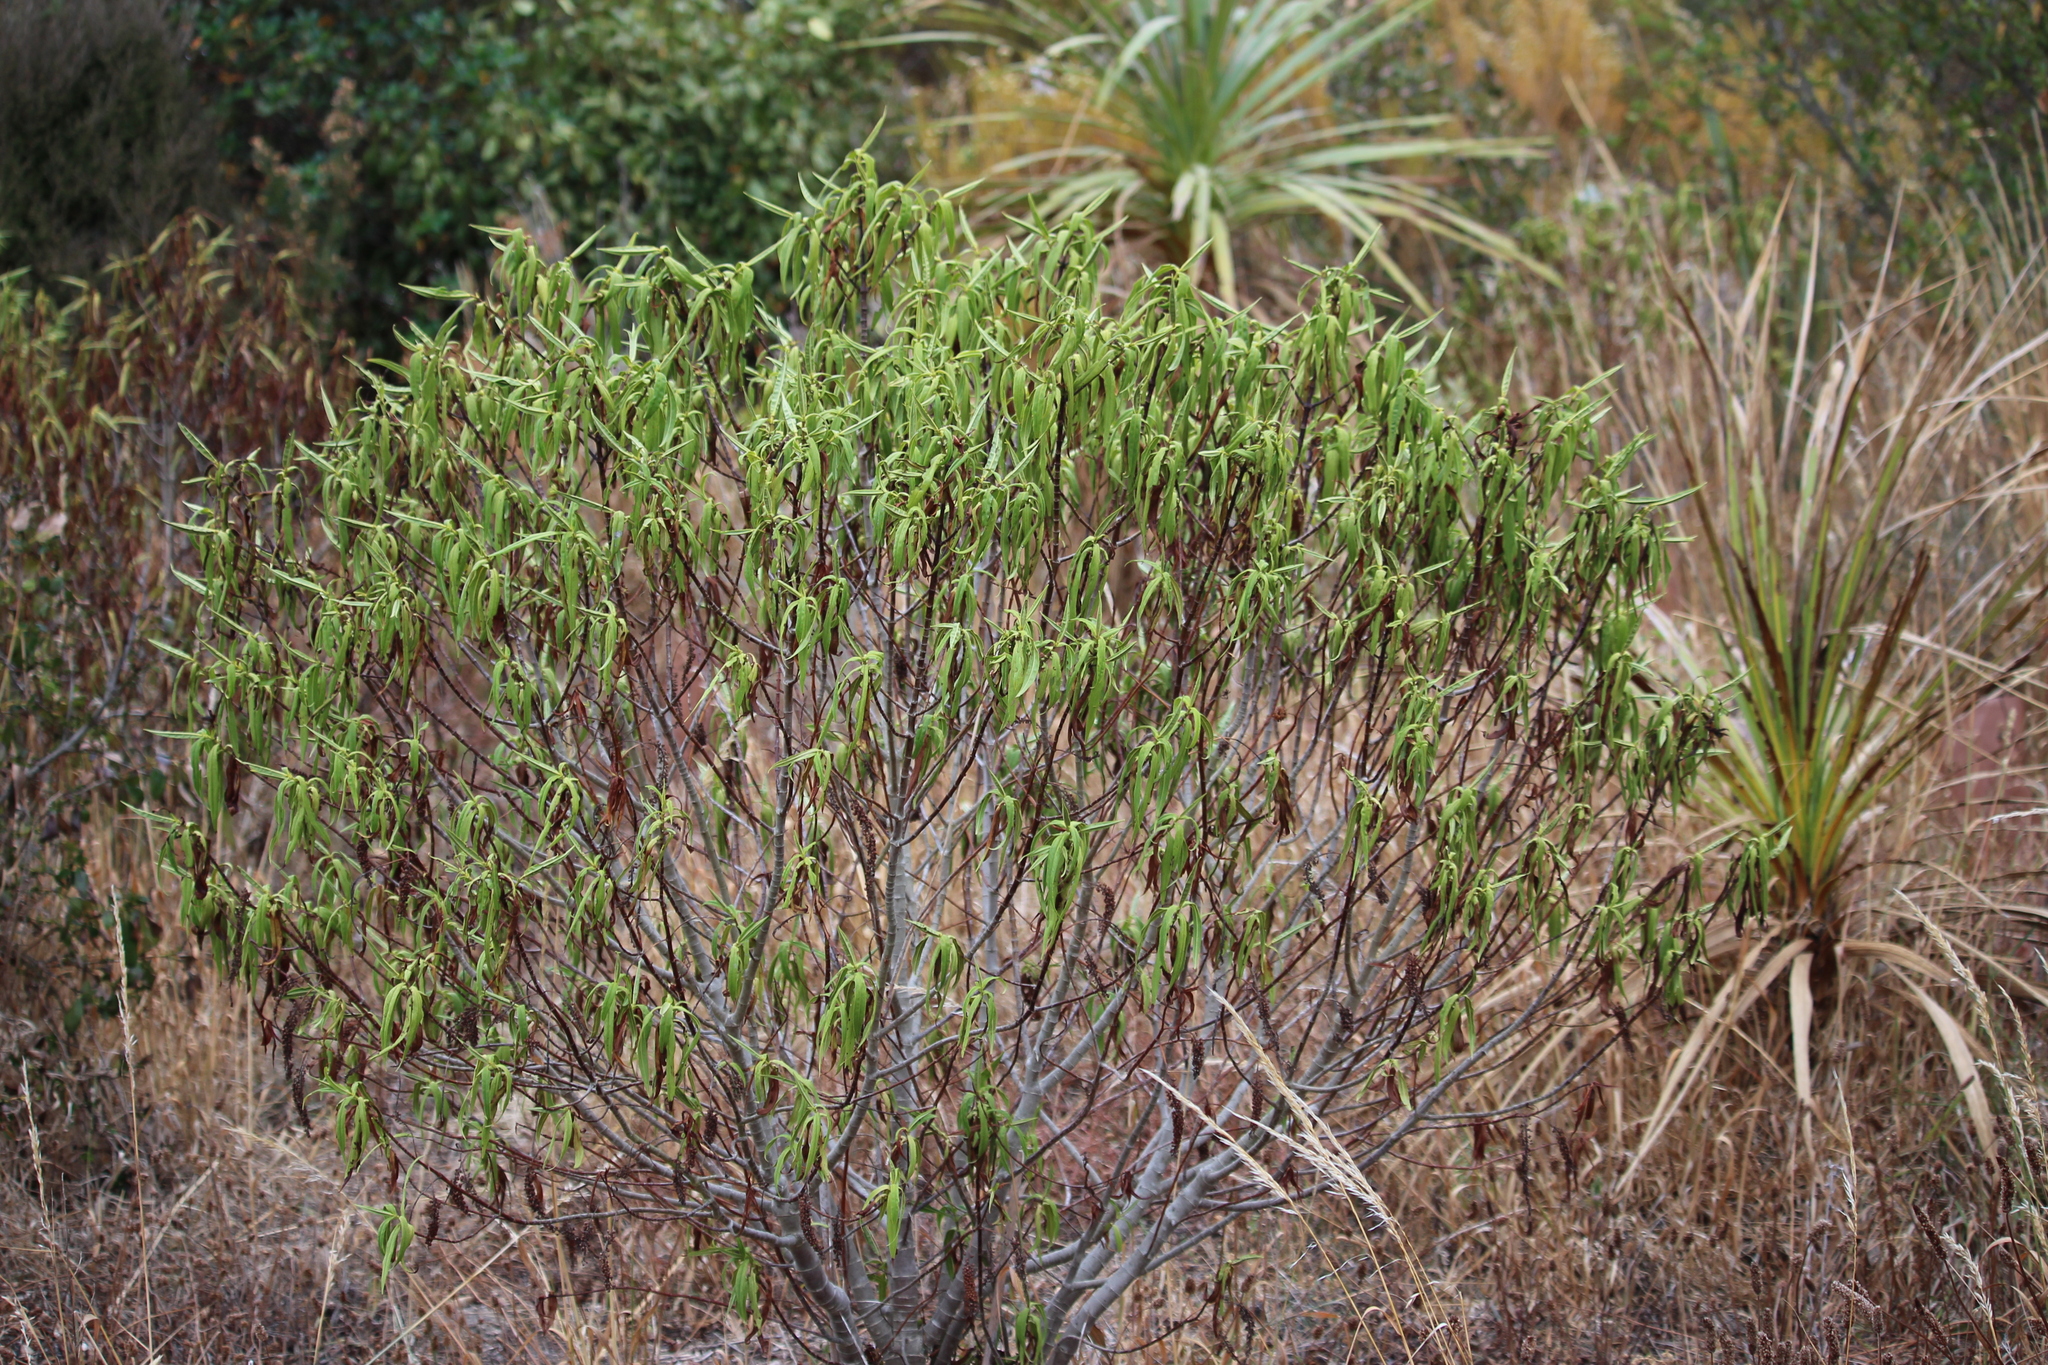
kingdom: Plantae
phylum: Tracheophyta
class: Magnoliopsida
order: Lamiales
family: Plantaginaceae
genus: Veronica
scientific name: Veronica salicifolia
